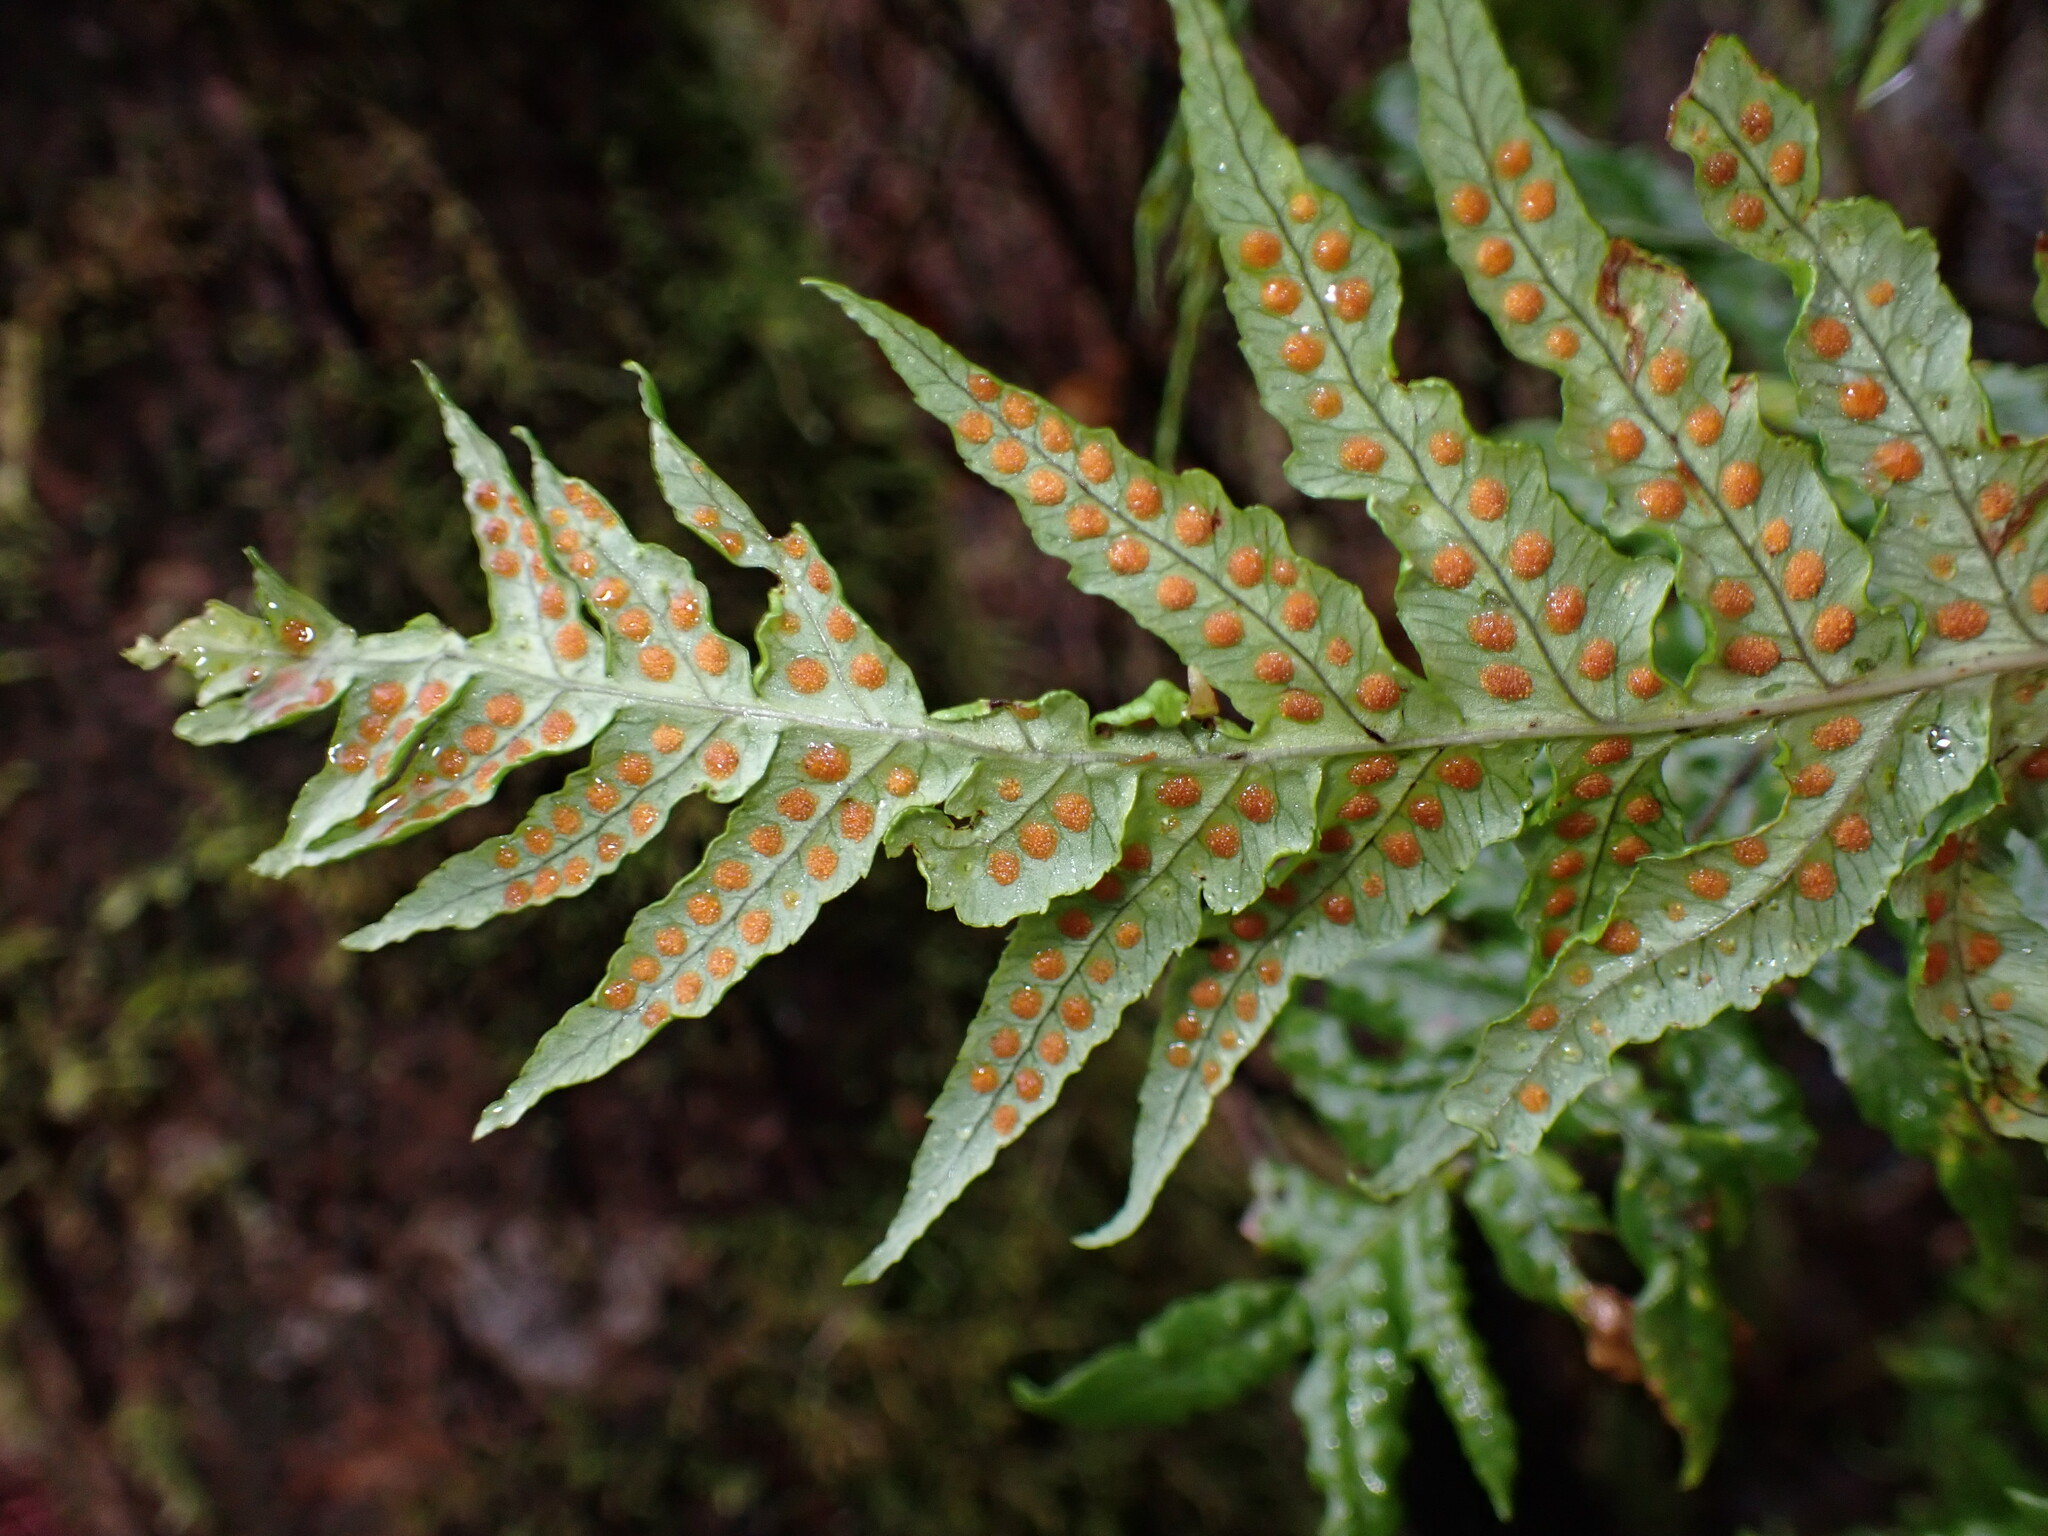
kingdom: Plantae
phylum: Tracheophyta
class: Polypodiopsida
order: Polypodiales
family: Polypodiaceae
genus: Polypodium
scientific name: Polypodium glycyrrhiza
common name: Licorice fern
